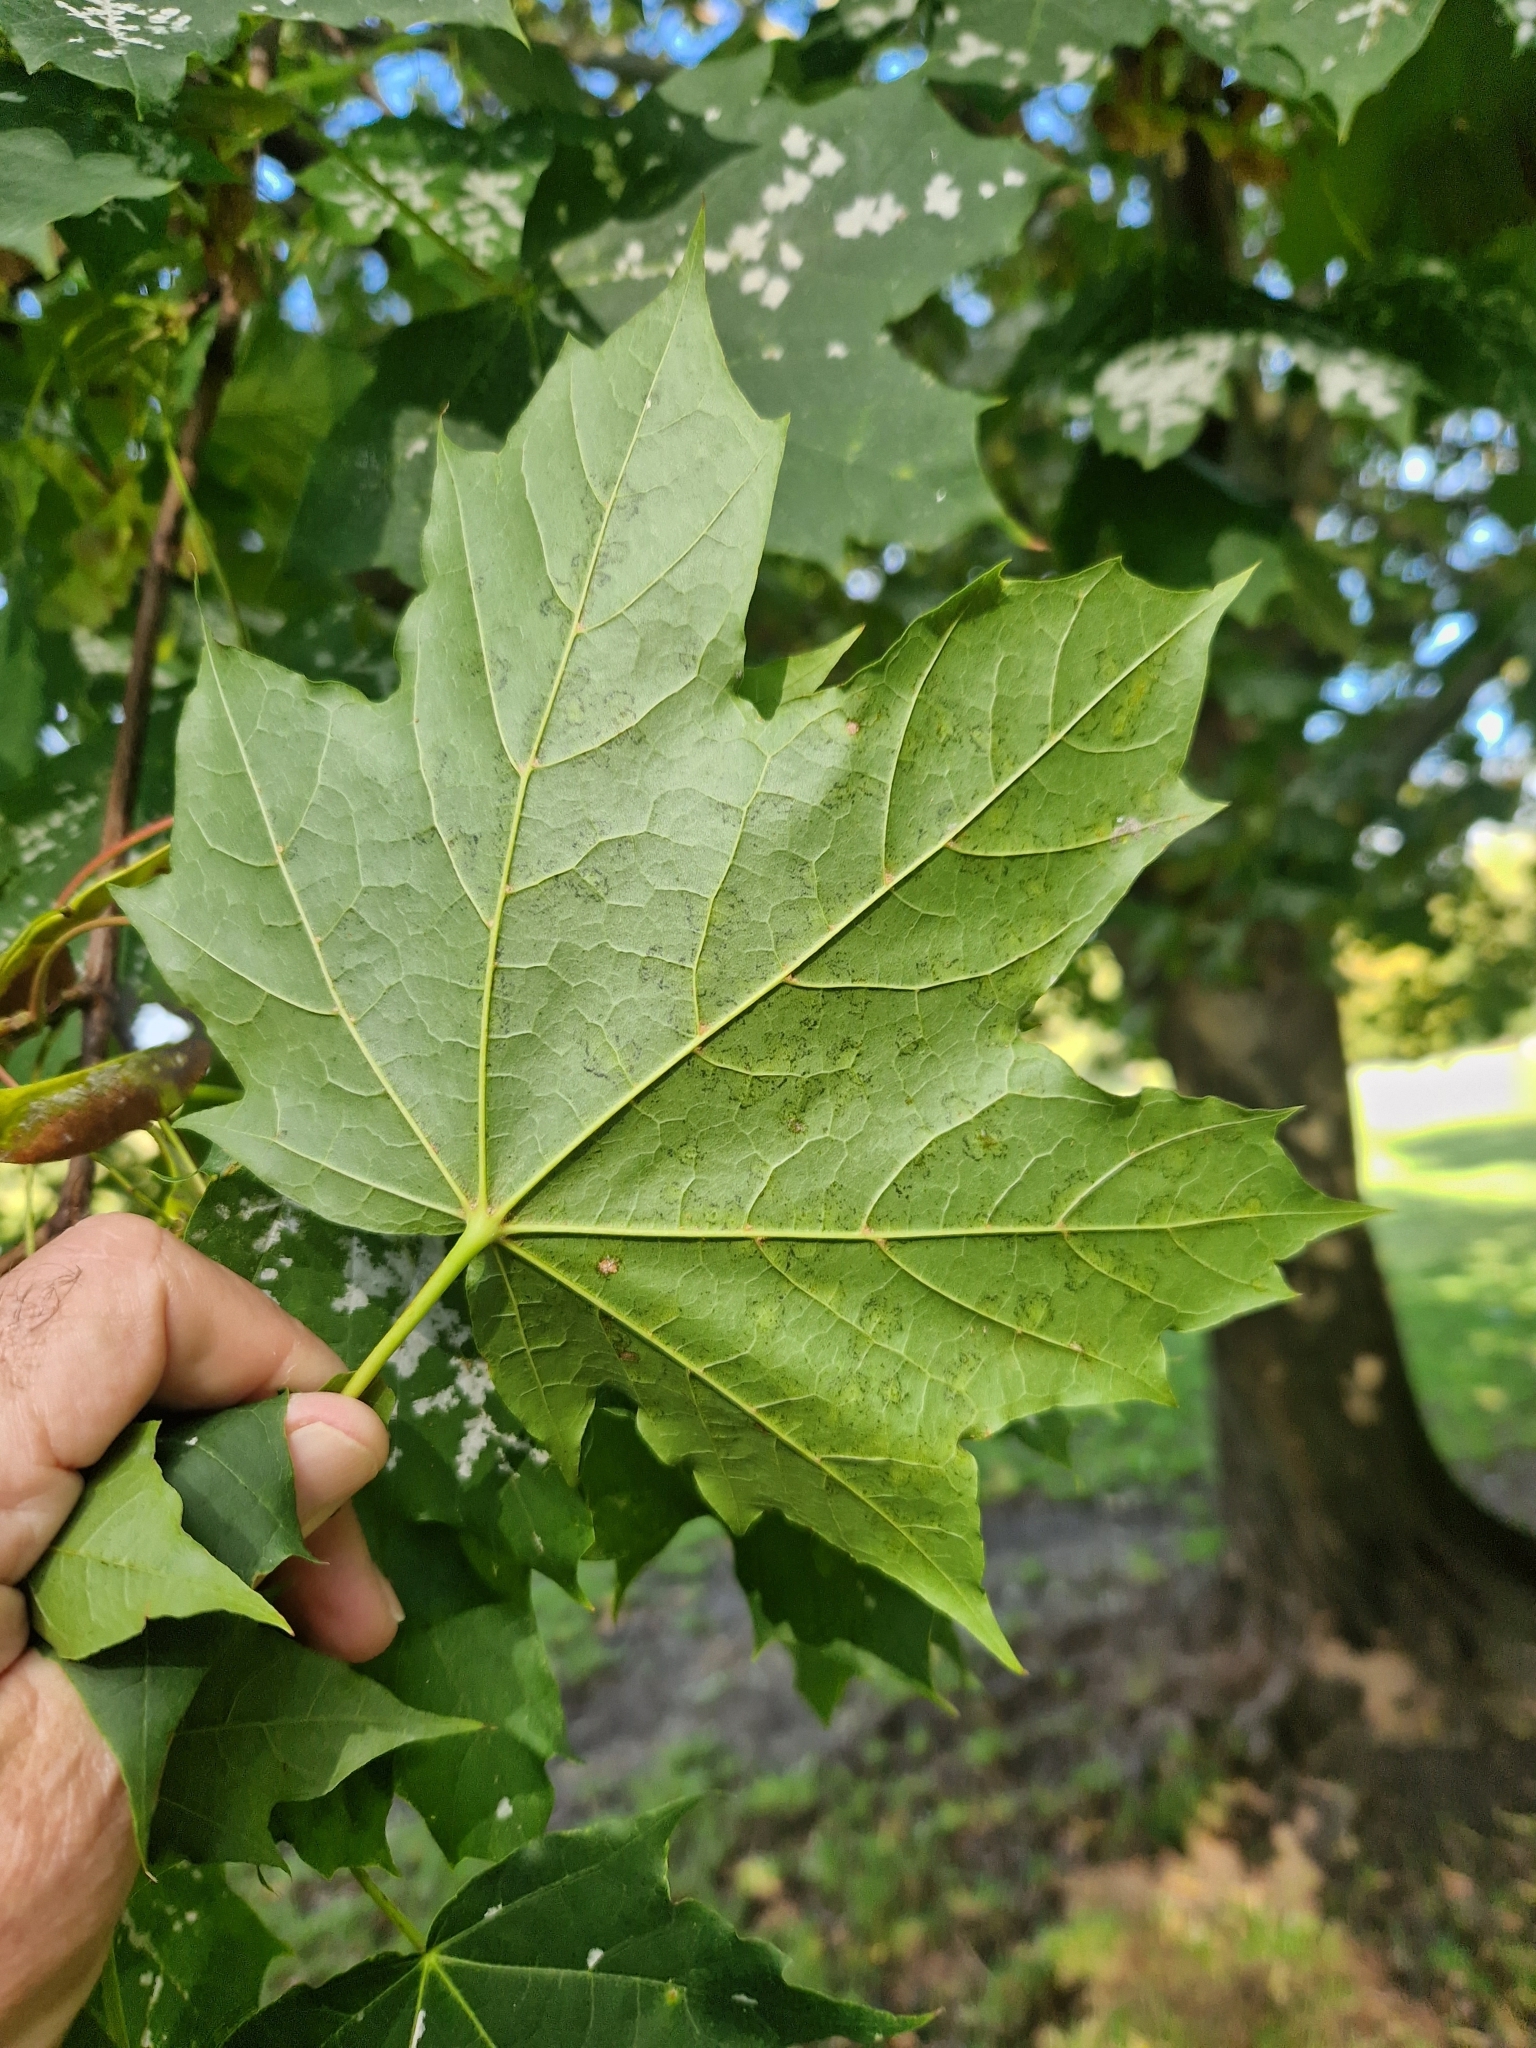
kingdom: Fungi
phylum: Ascomycota
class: Leotiomycetes
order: Helotiales
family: Erysiphaceae
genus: Sawadaea
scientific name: Sawadaea tulasnei
